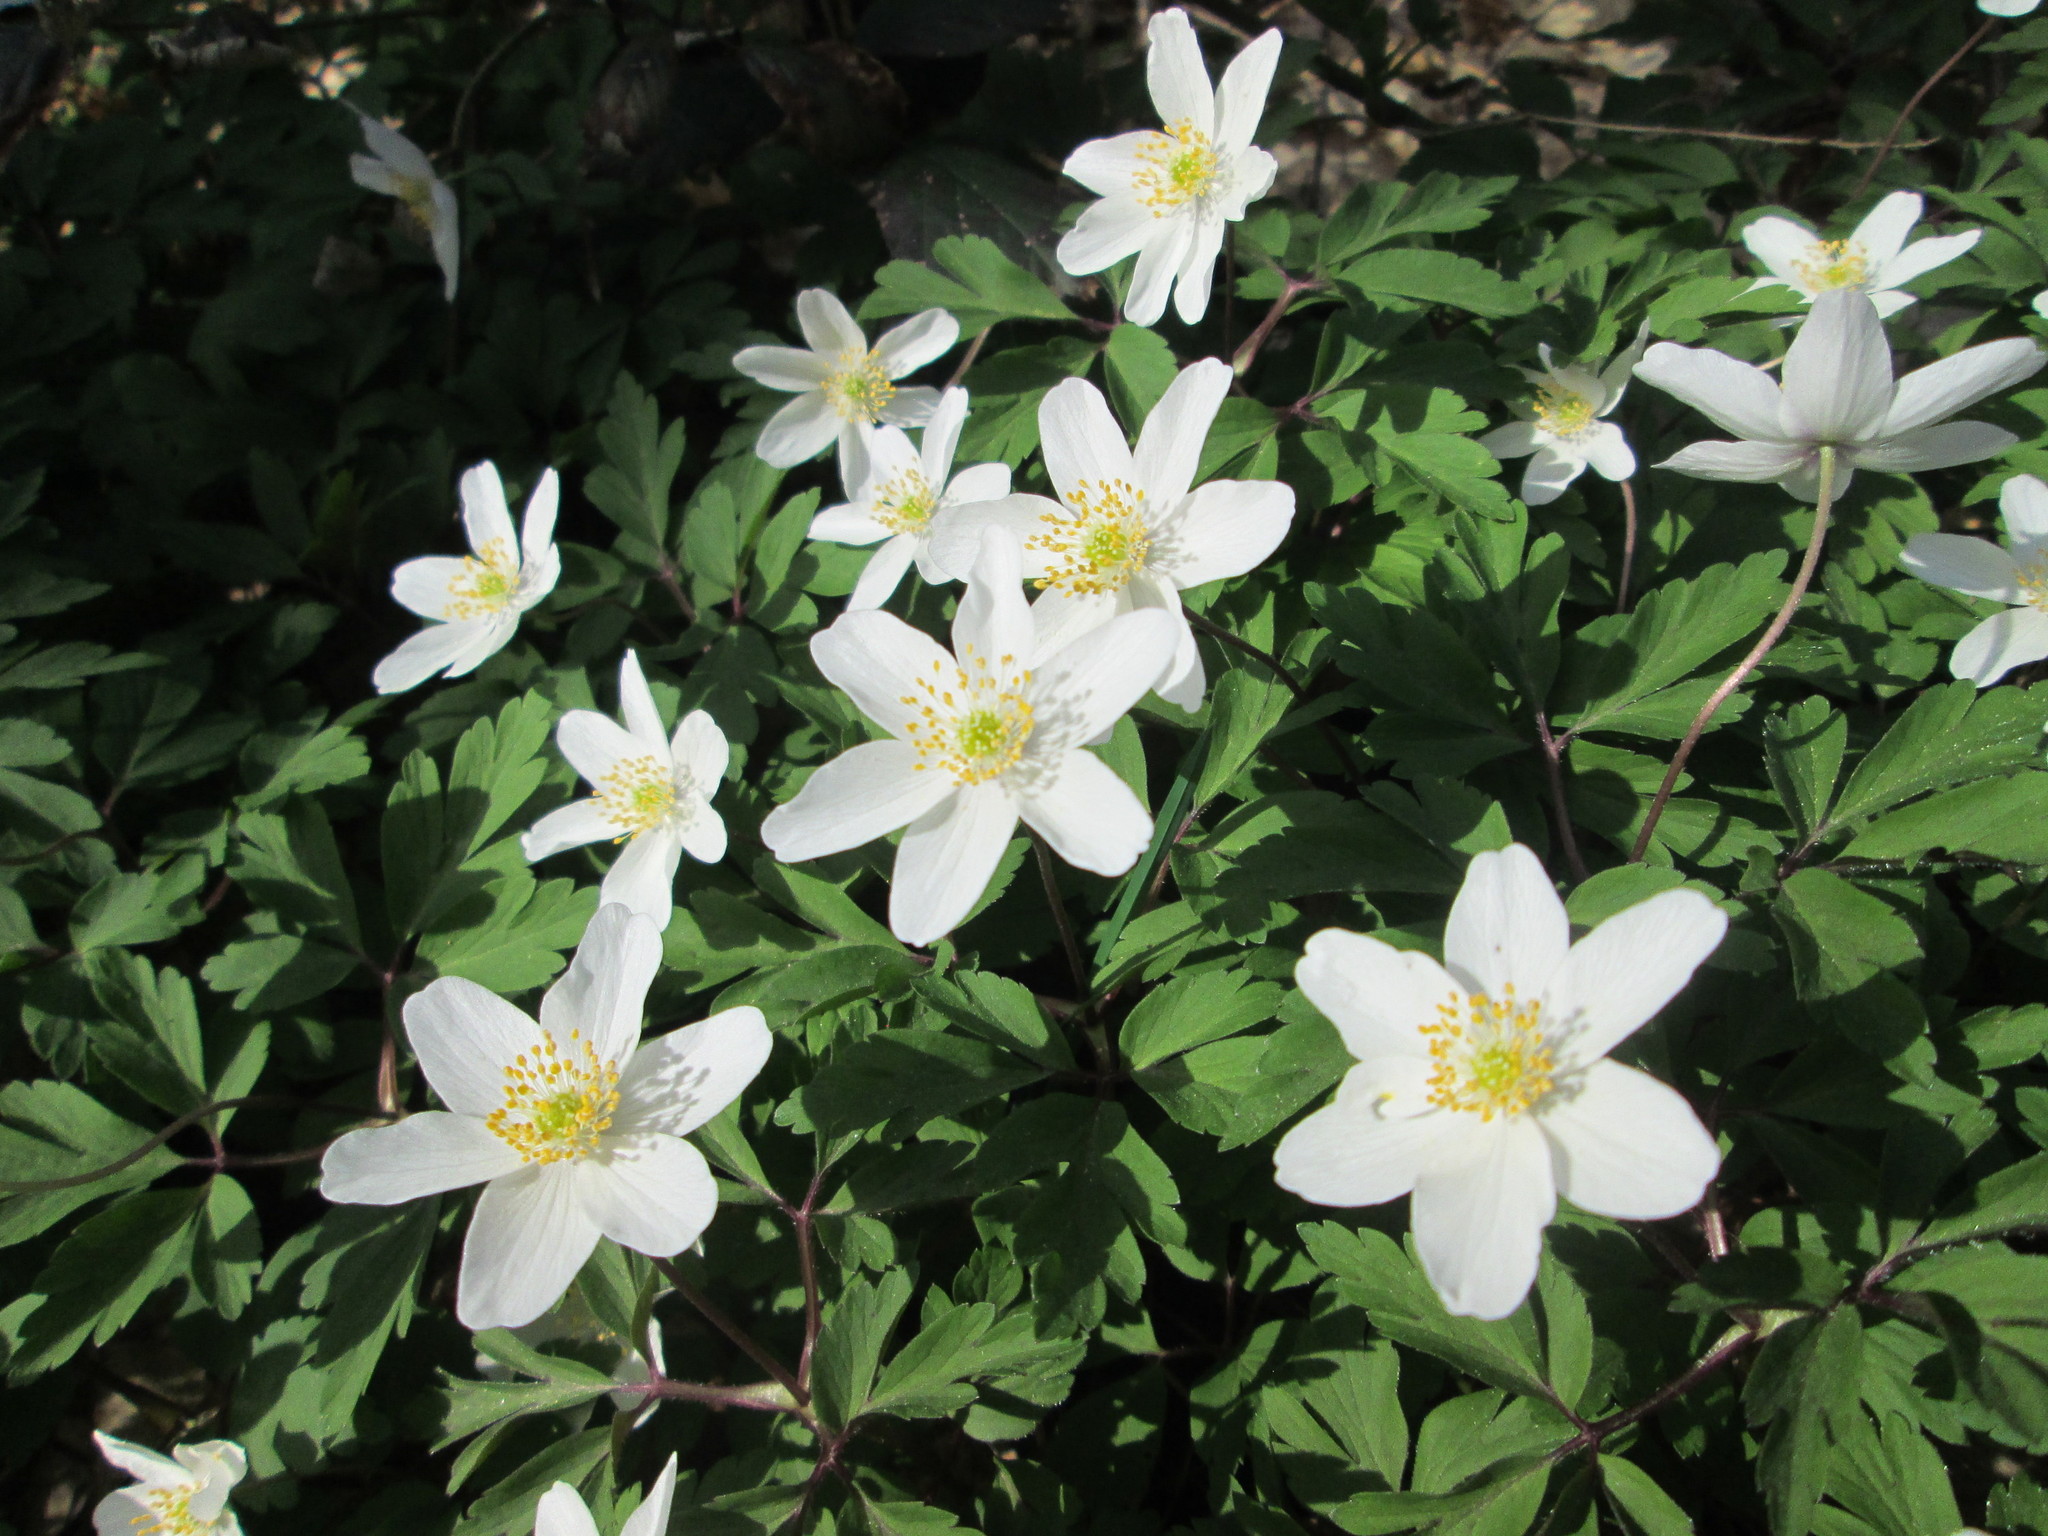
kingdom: Plantae
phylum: Tracheophyta
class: Magnoliopsida
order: Ranunculales
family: Ranunculaceae
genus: Anemone
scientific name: Anemone nemorosa
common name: Wood anemone
